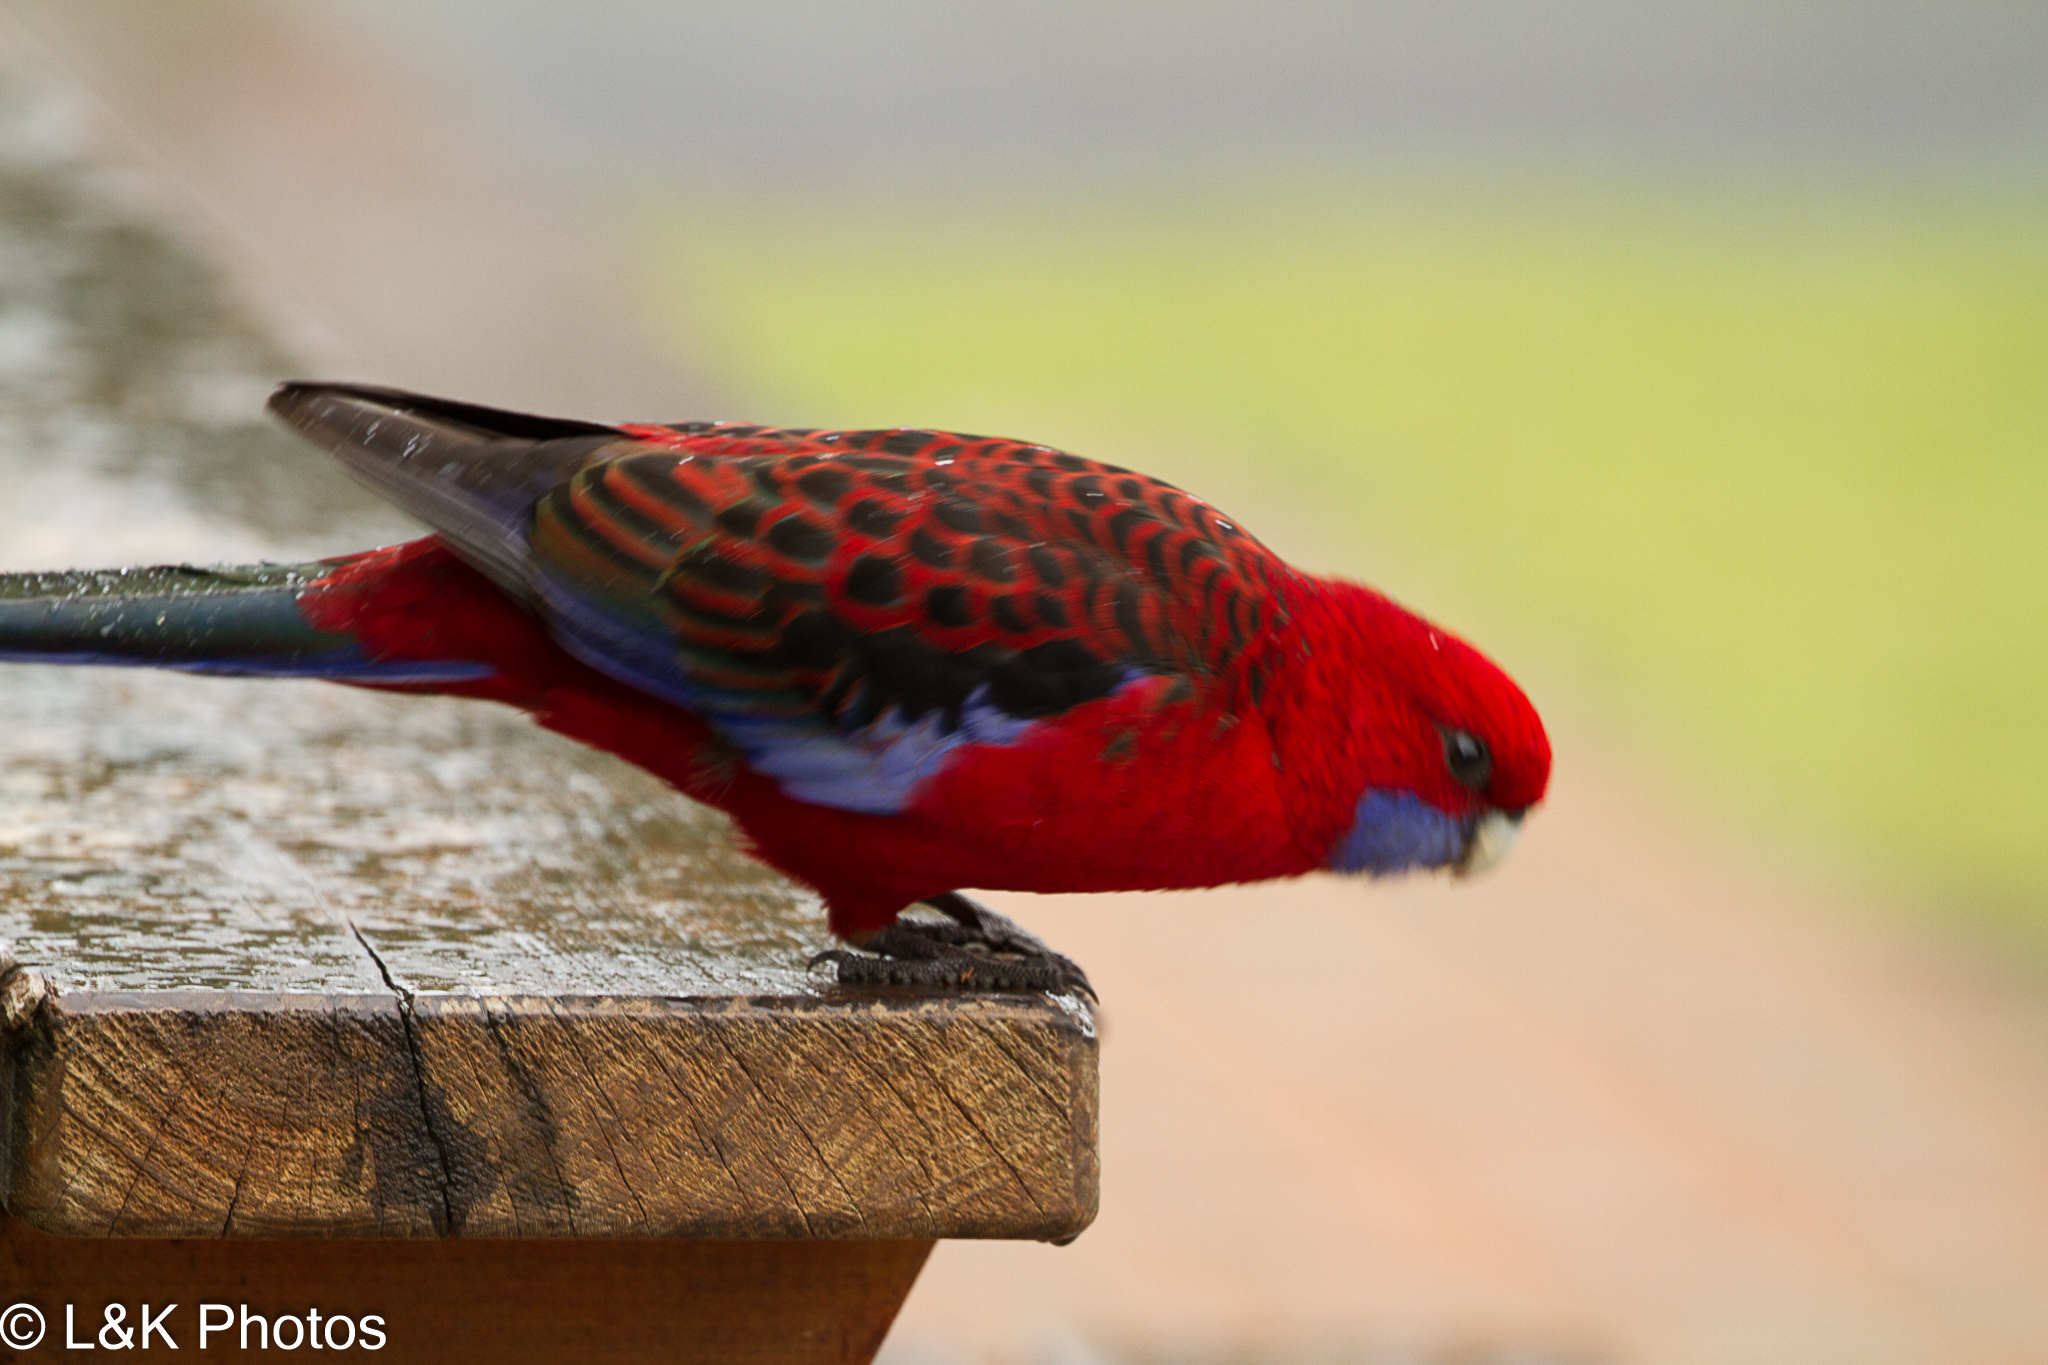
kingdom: Animalia
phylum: Chordata
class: Aves
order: Psittaciformes
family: Psittacidae
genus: Platycercus
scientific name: Platycercus elegans
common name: Crimson rosella
